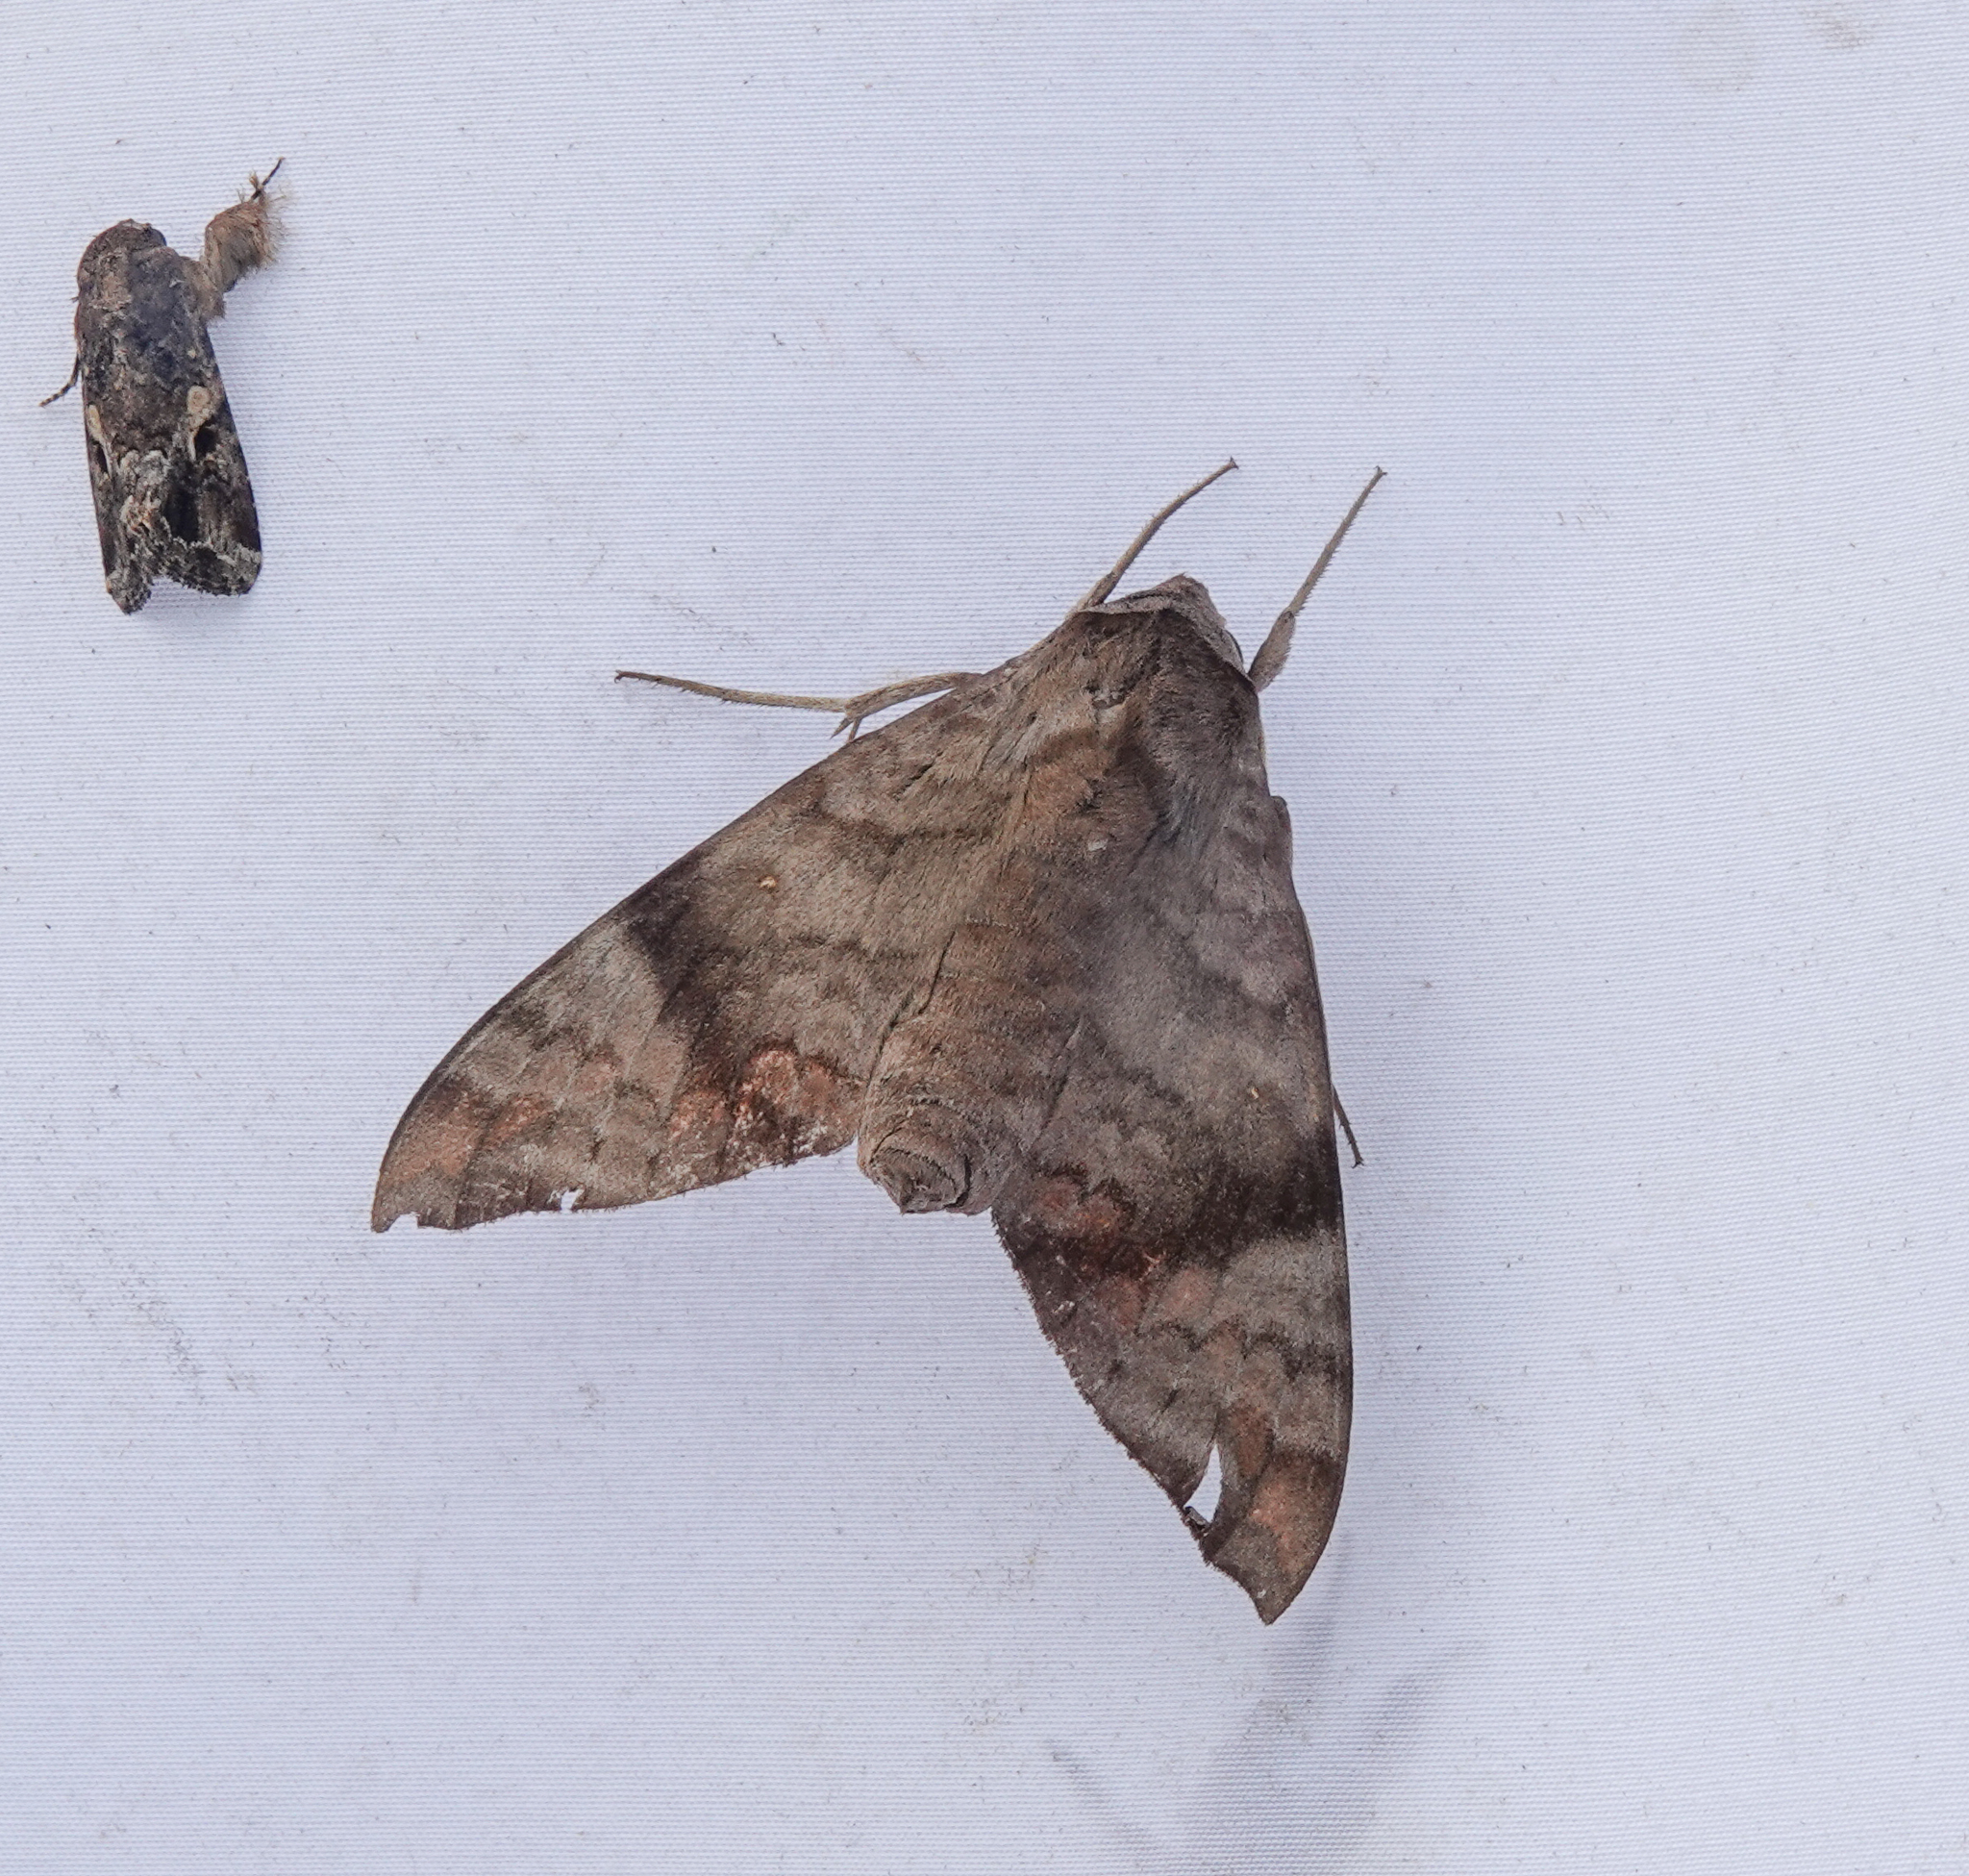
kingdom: Animalia
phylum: Arthropoda
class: Insecta
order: Lepidoptera
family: Sphingidae
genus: Acosmeryx
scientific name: Acosmeryx shervillii
